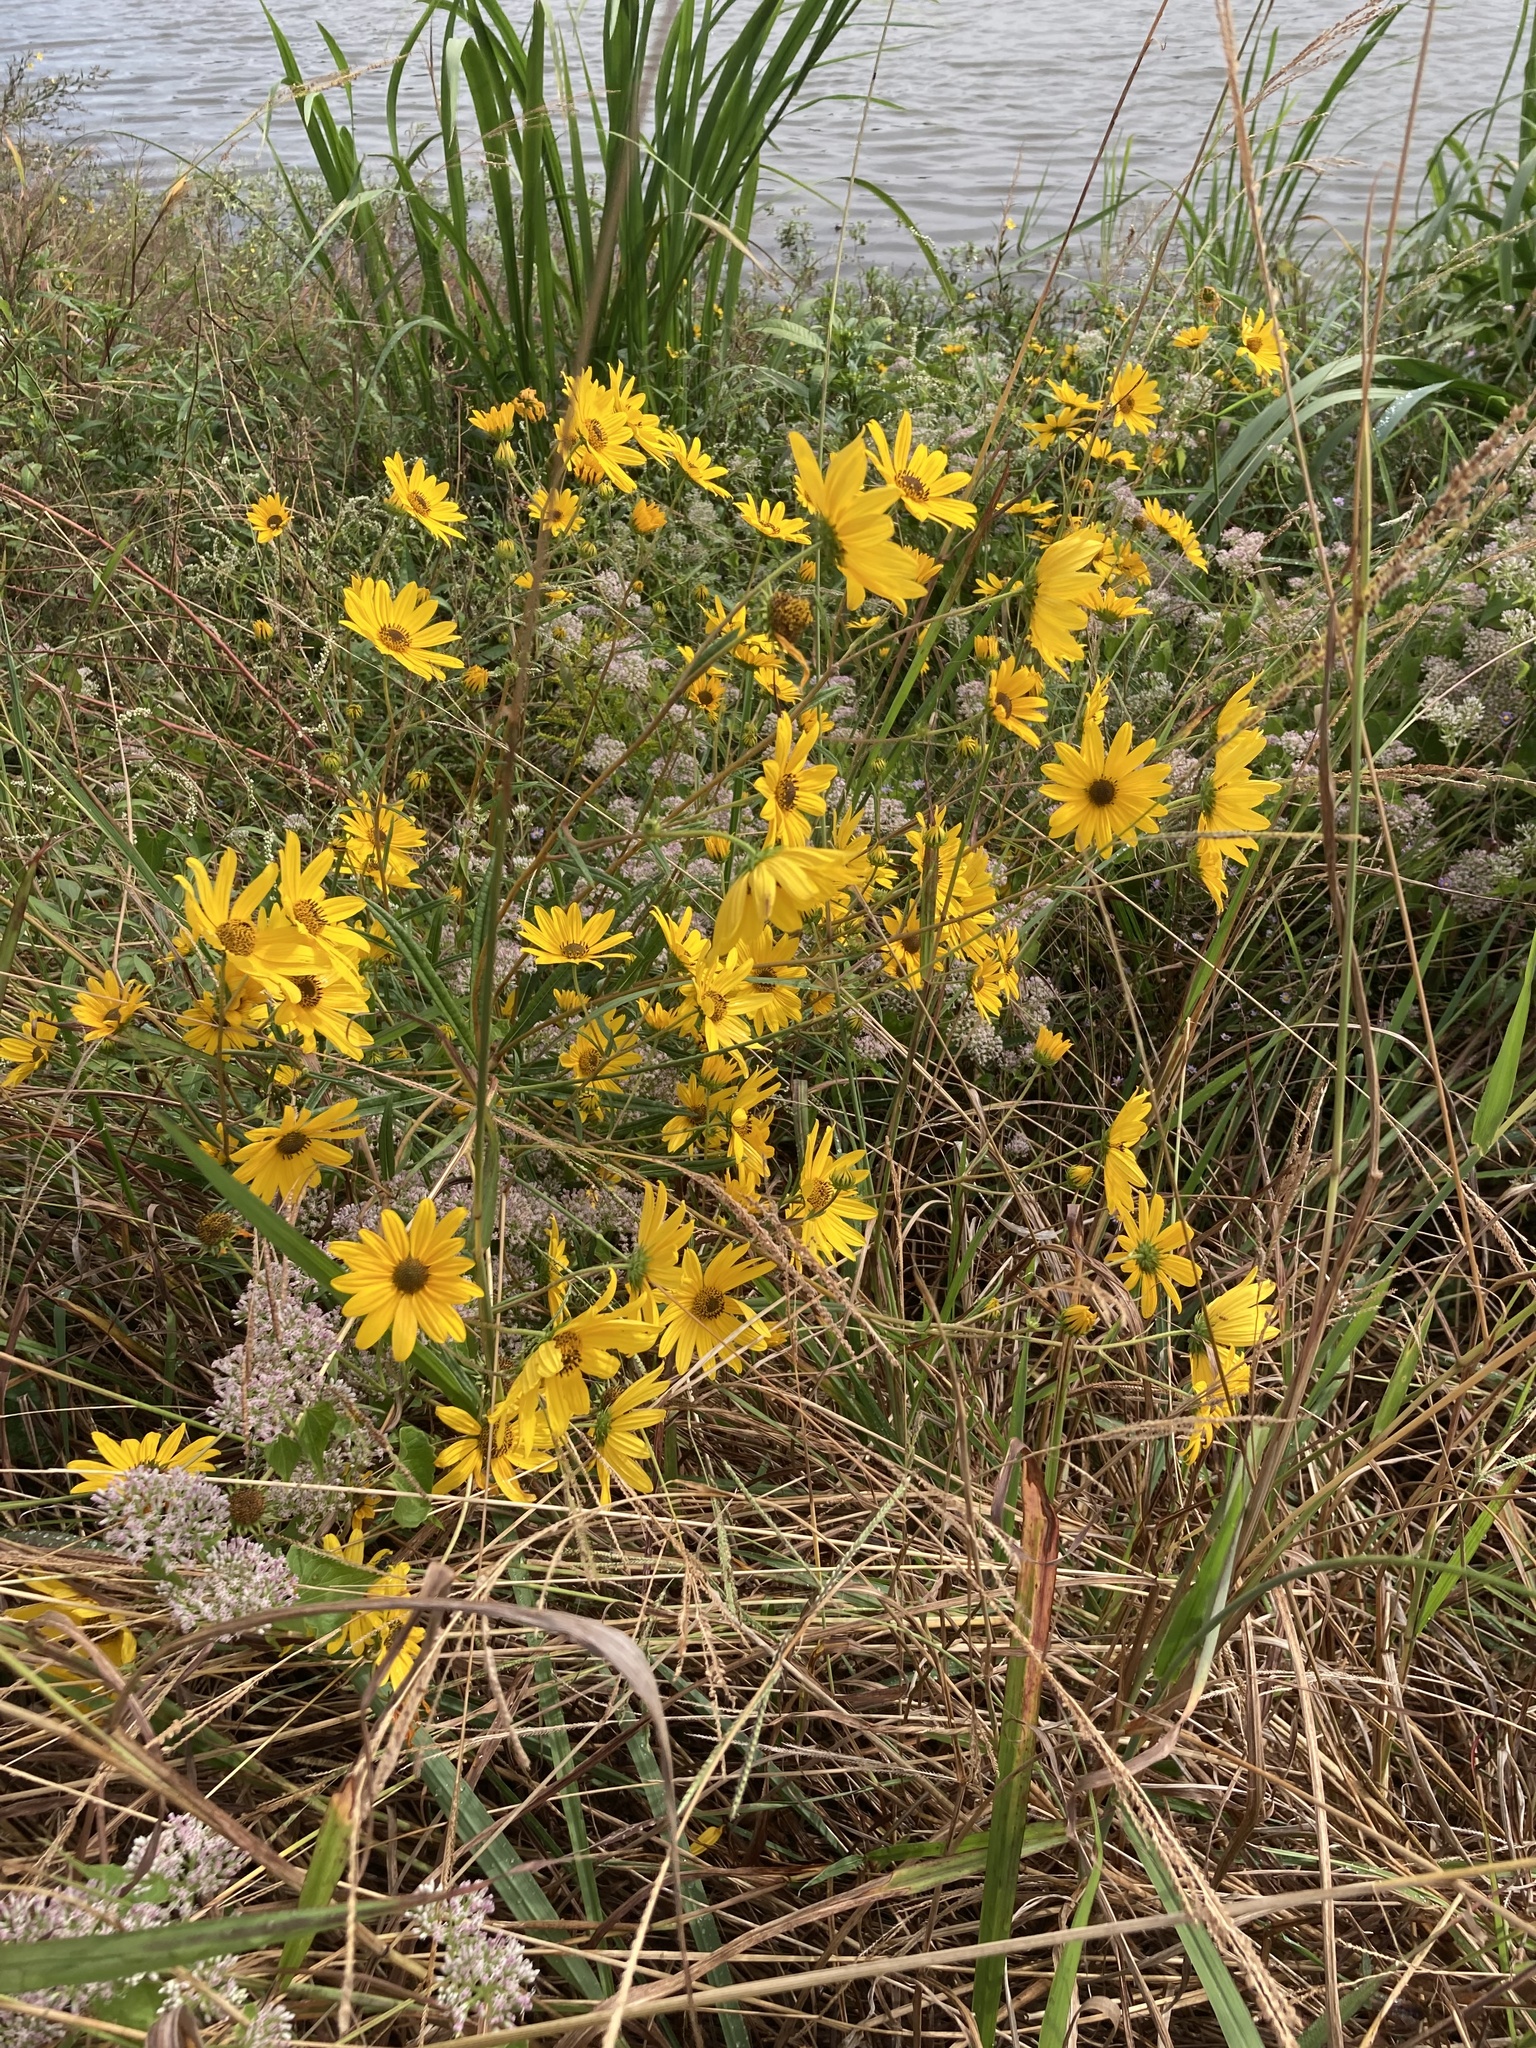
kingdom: Plantae
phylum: Tracheophyta
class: Magnoliopsida
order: Asterales
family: Asteraceae
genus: Helianthus
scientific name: Helianthus angustifolius
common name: Swamp sunflower
